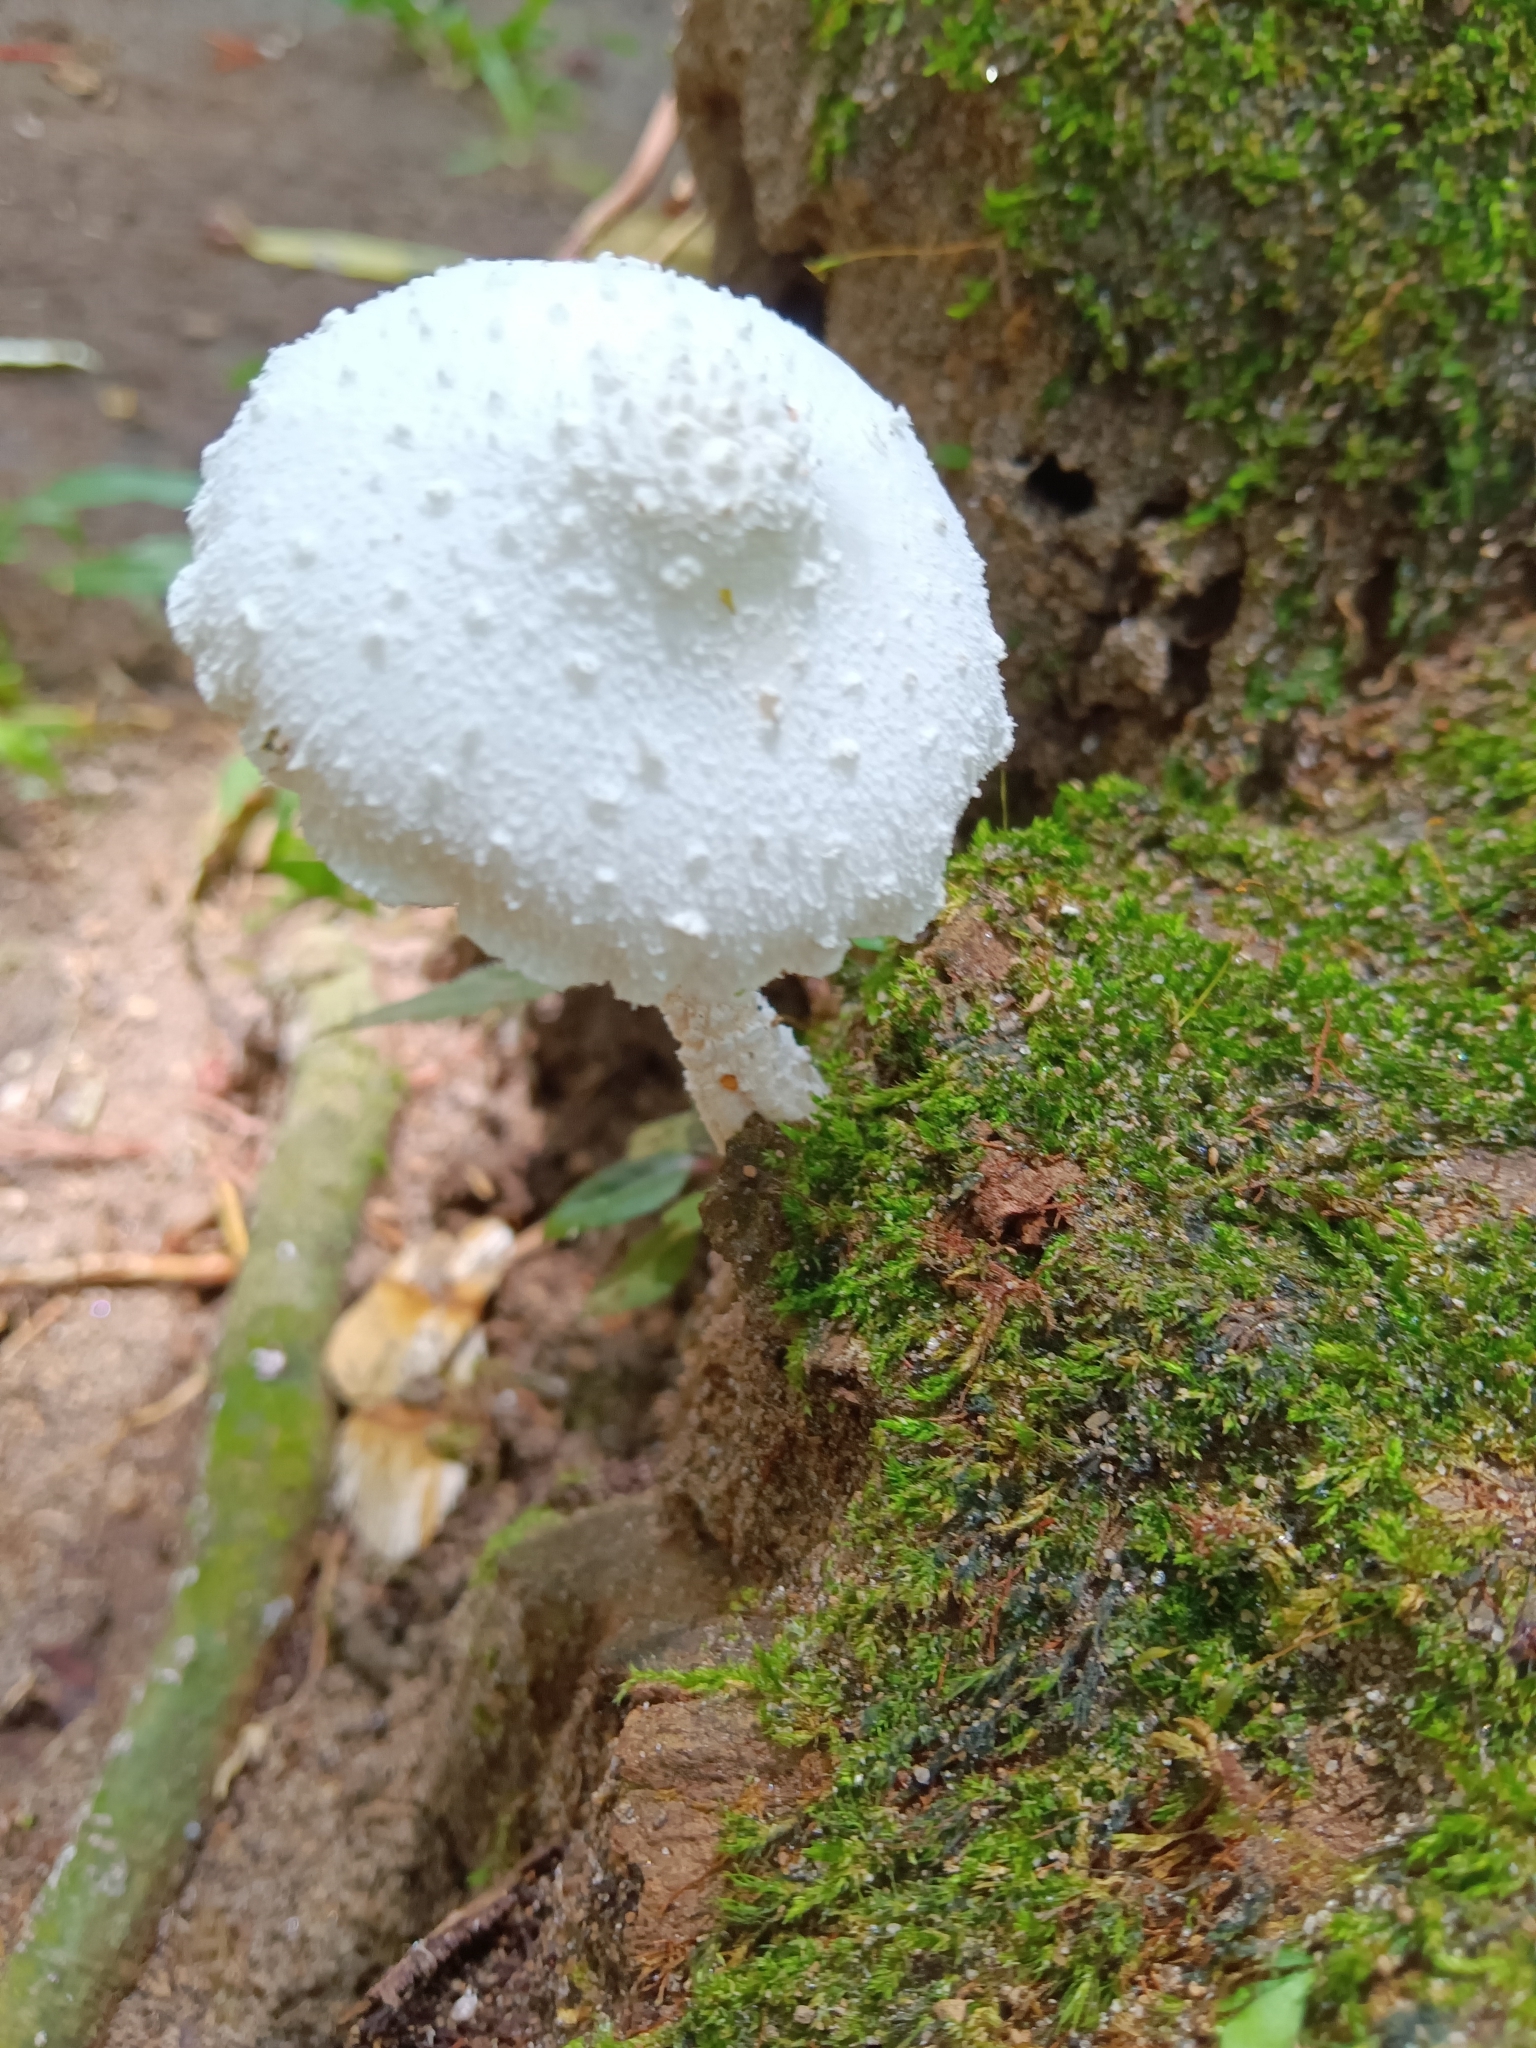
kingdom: Fungi
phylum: Basidiomycota
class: Agaricomycetes
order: Agaricales
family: Agaricaceae
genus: Leucocoprinus
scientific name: Leucocoprinus cretaceus
